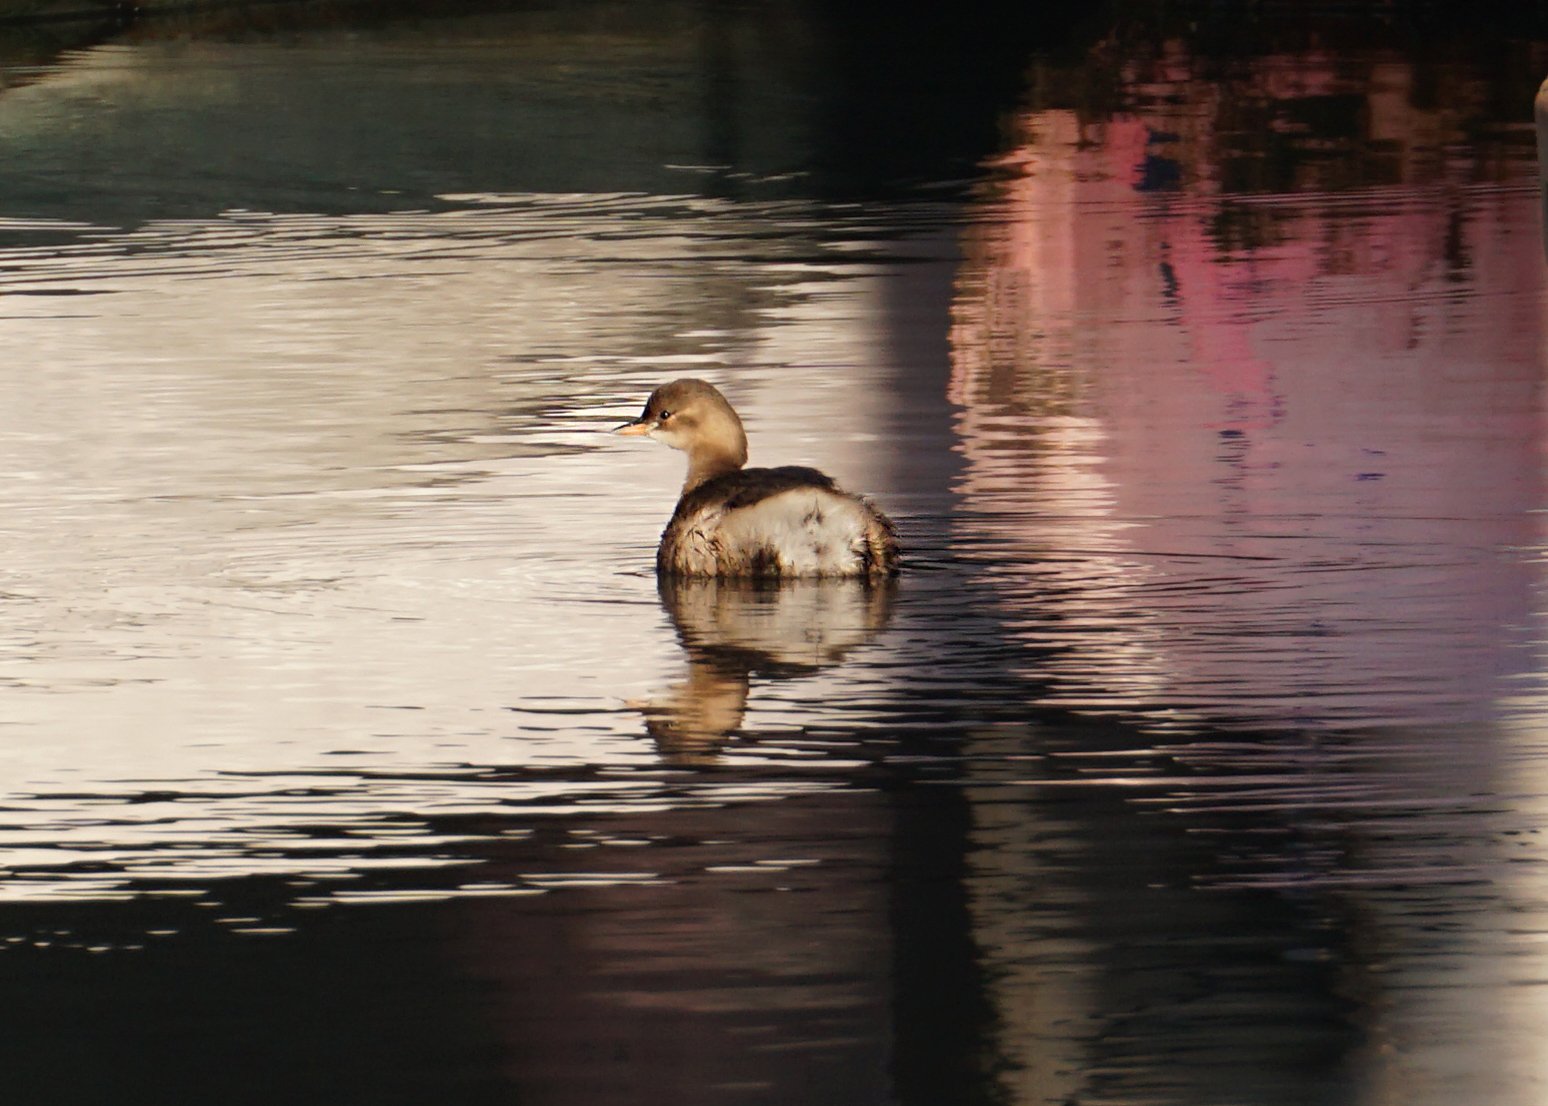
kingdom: Animalia
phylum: Chordata
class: Aves
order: Podicipediformes
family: Podicipedidae
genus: Tachybaptus
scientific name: Tachybaptus ruficollis
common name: Little grebe
